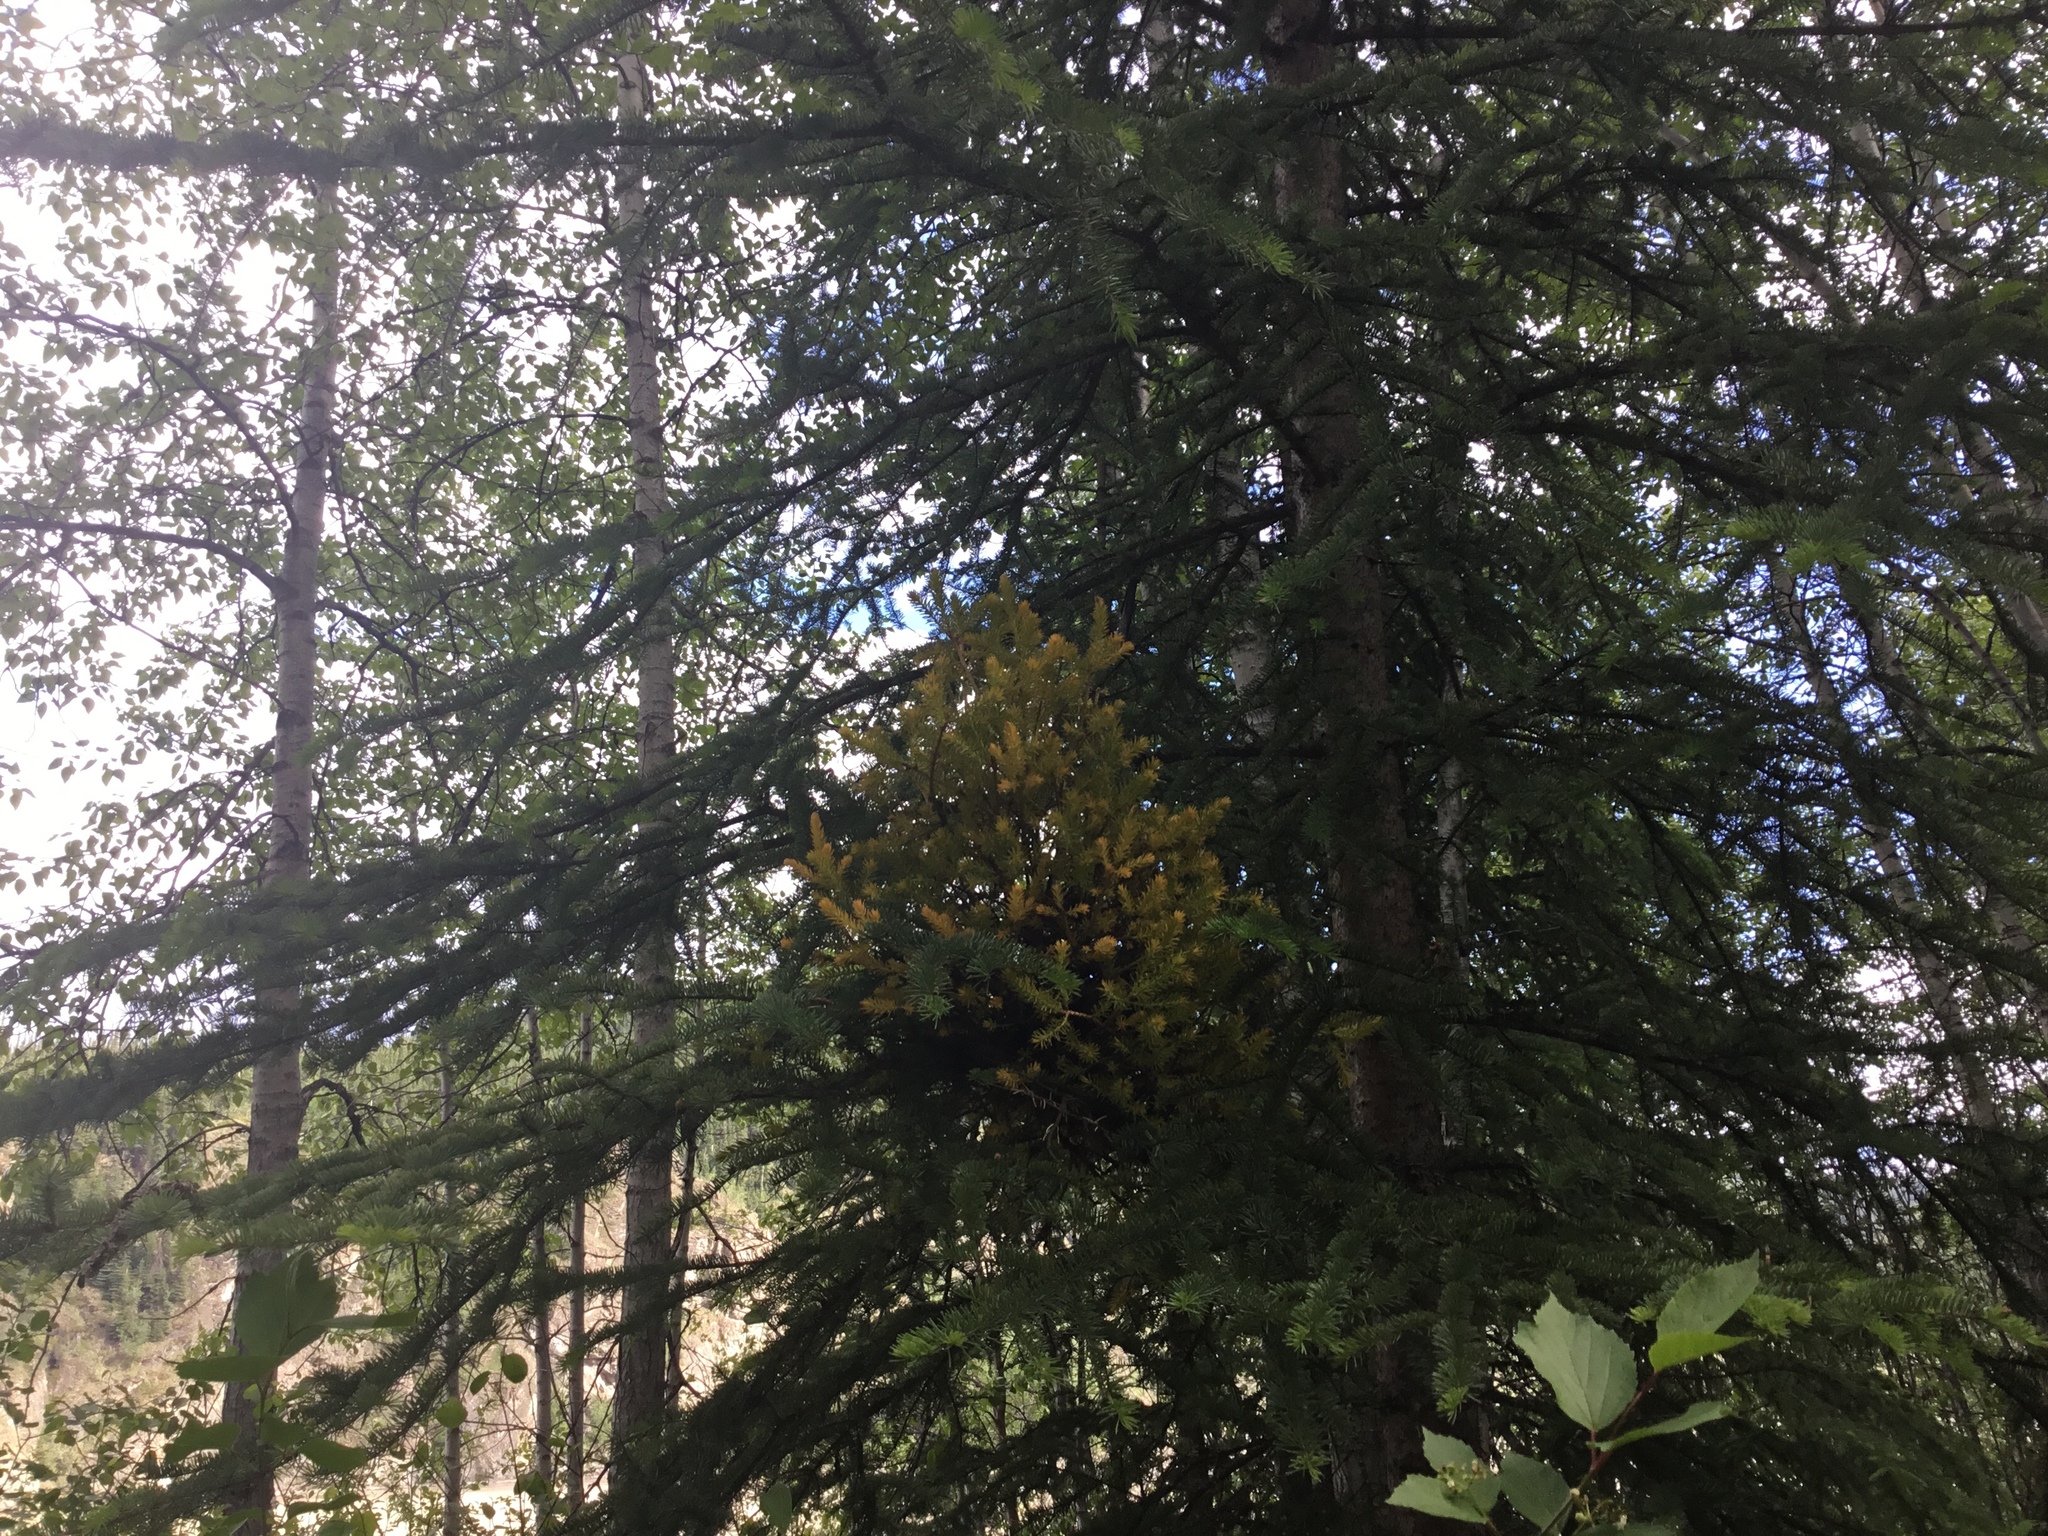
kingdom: Fungi
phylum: Basidiomycota
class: Pucciniomycetes
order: Pucciniales
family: Coleosporiaceae
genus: Chrysomyxa
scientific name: Chrysomyxa arctostaphyli
